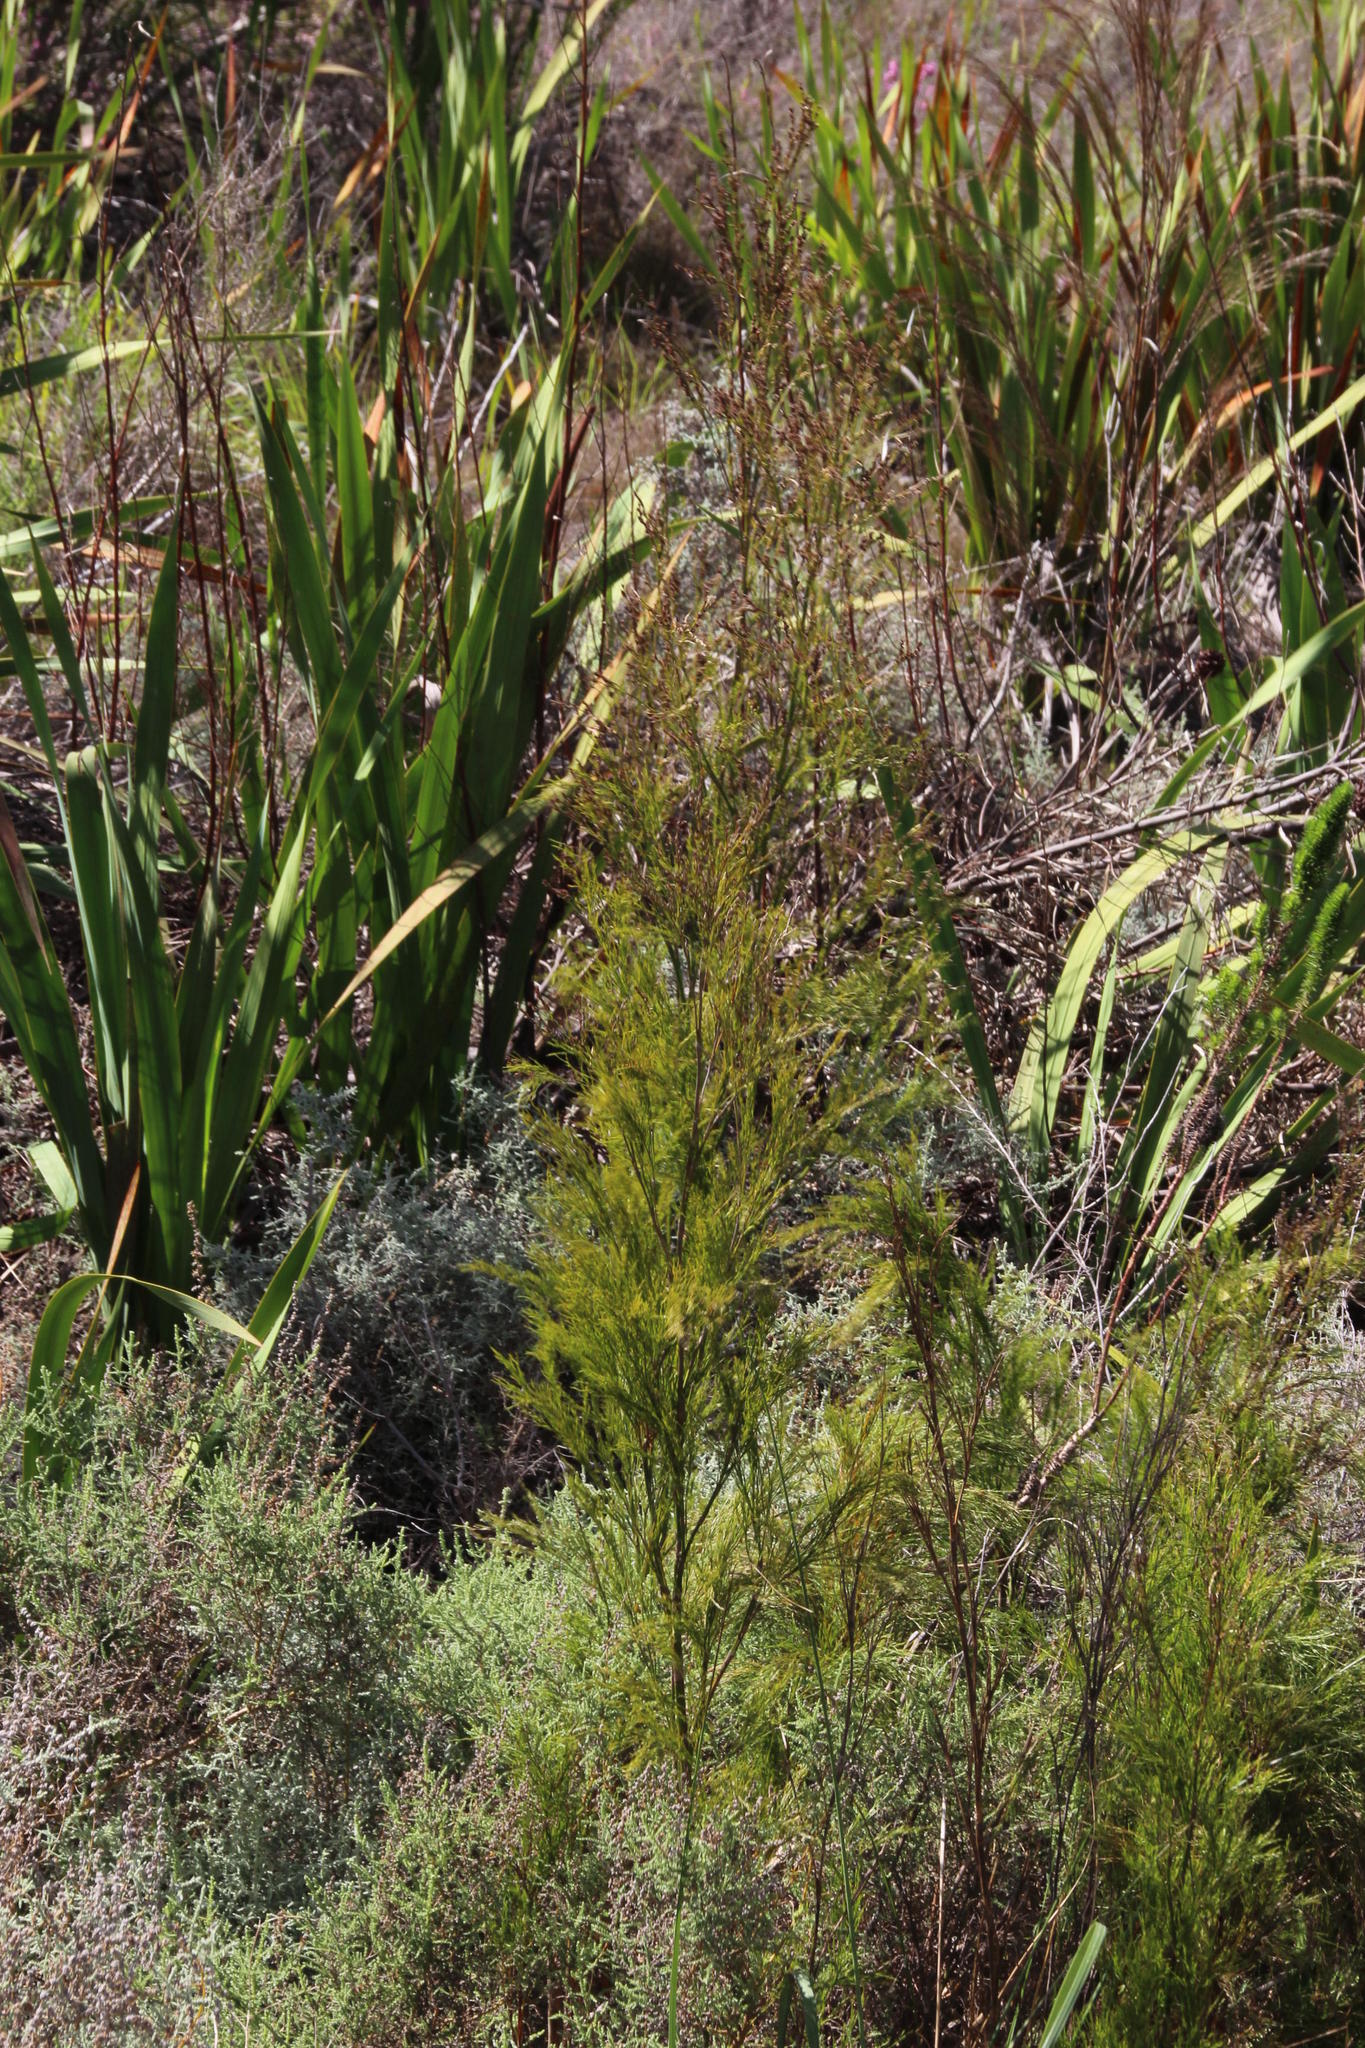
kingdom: Plantae
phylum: Tracheophyta
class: Liliopsida
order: Poales
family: Restionaceae
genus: Restio
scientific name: Restio paniculatus
